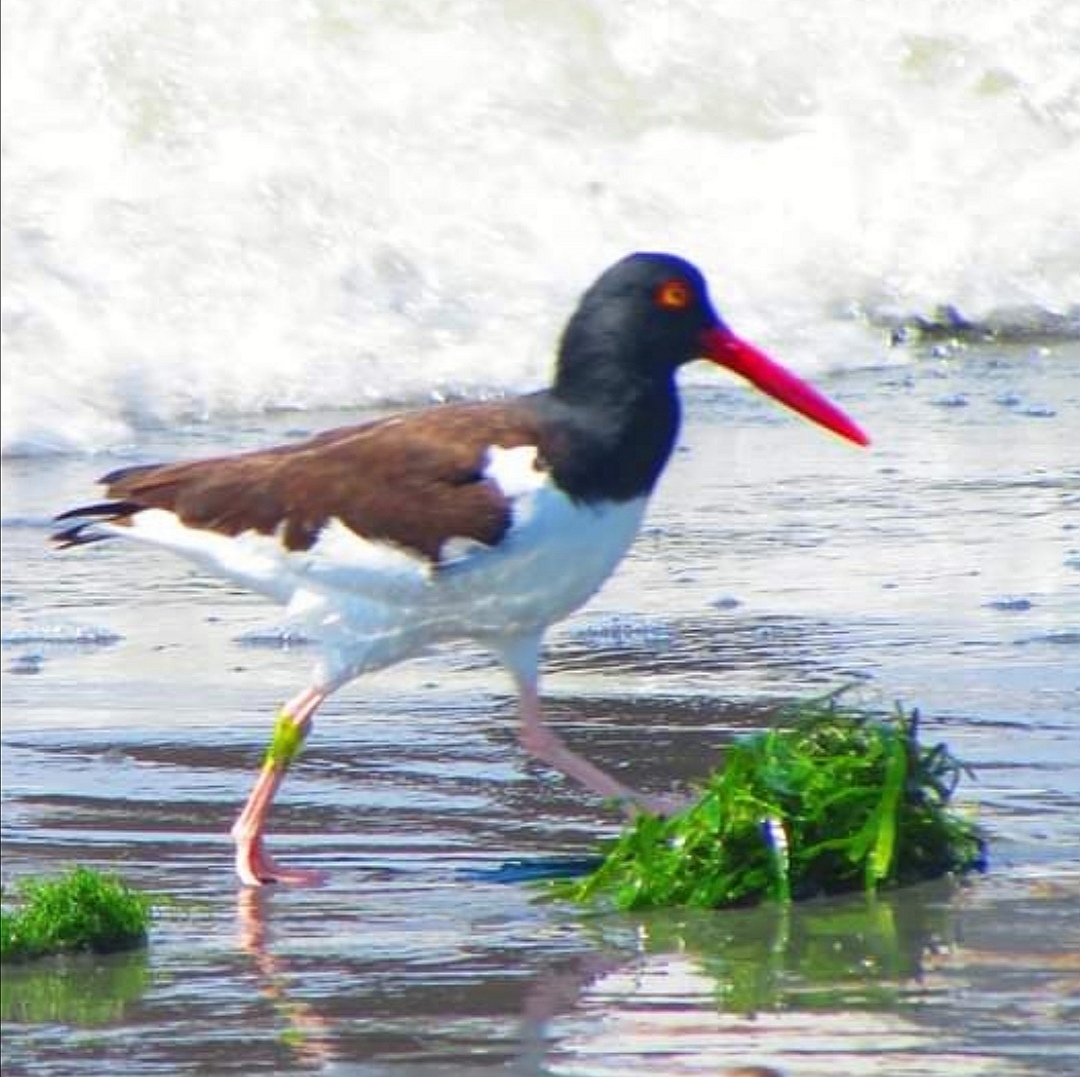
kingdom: Animalia
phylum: Chordata
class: Aves
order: Charadriiformes
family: Haematopodidae
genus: Haematopus
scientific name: Haematopus palliatus
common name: American oystercatcher
